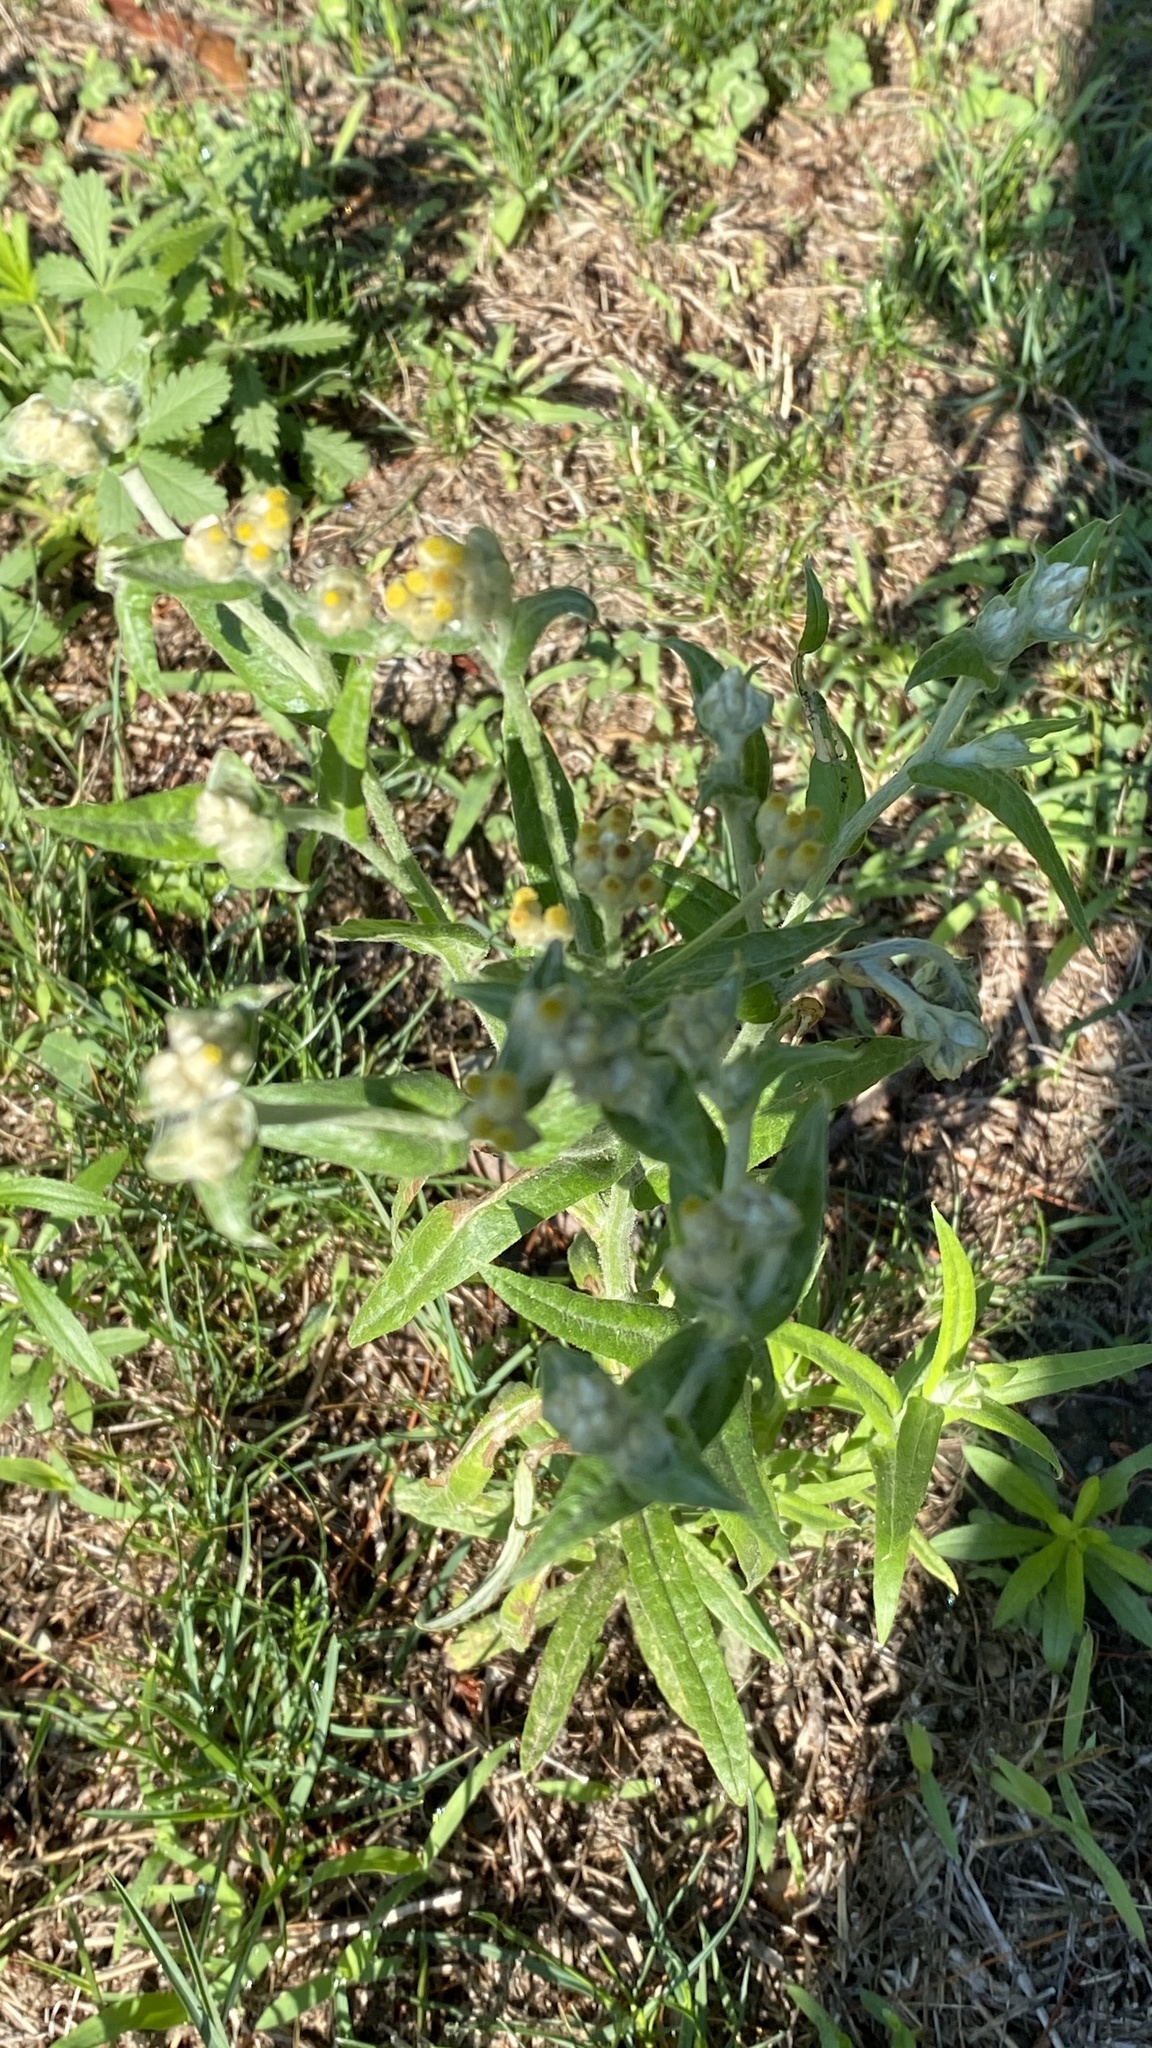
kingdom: Plantae
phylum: Tracheophyta
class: Magnoliopsida
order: Asterales
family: Asteraceae
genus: Pseudognaphalium
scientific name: Pseudognaphalium macounii
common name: Clammy cudweed
